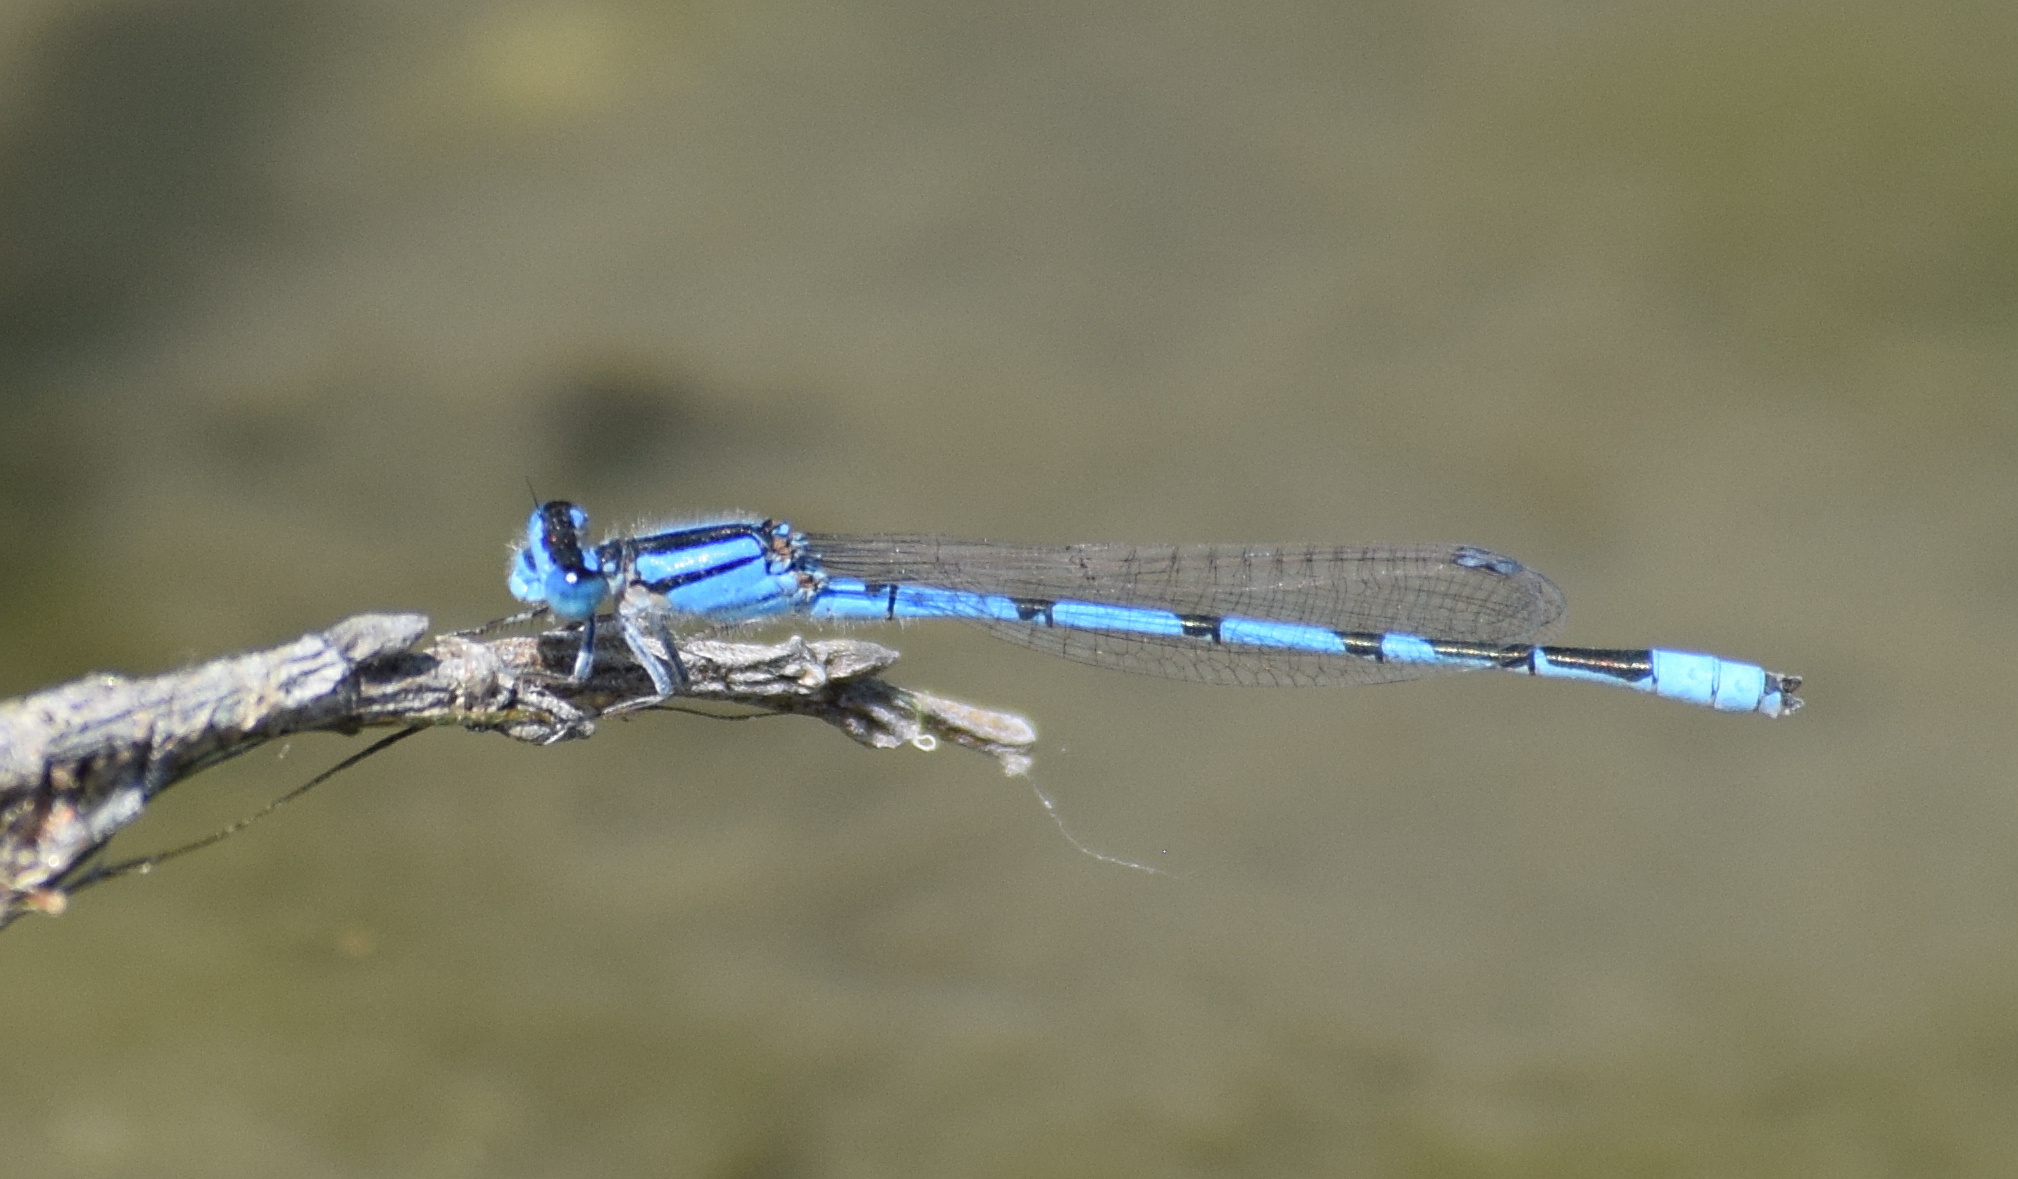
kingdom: Animalia
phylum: Arthropoda
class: Insecta
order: Odonata
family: Coenagrionidae
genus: Enallagma
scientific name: Enallagma civile
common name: Damselfly
